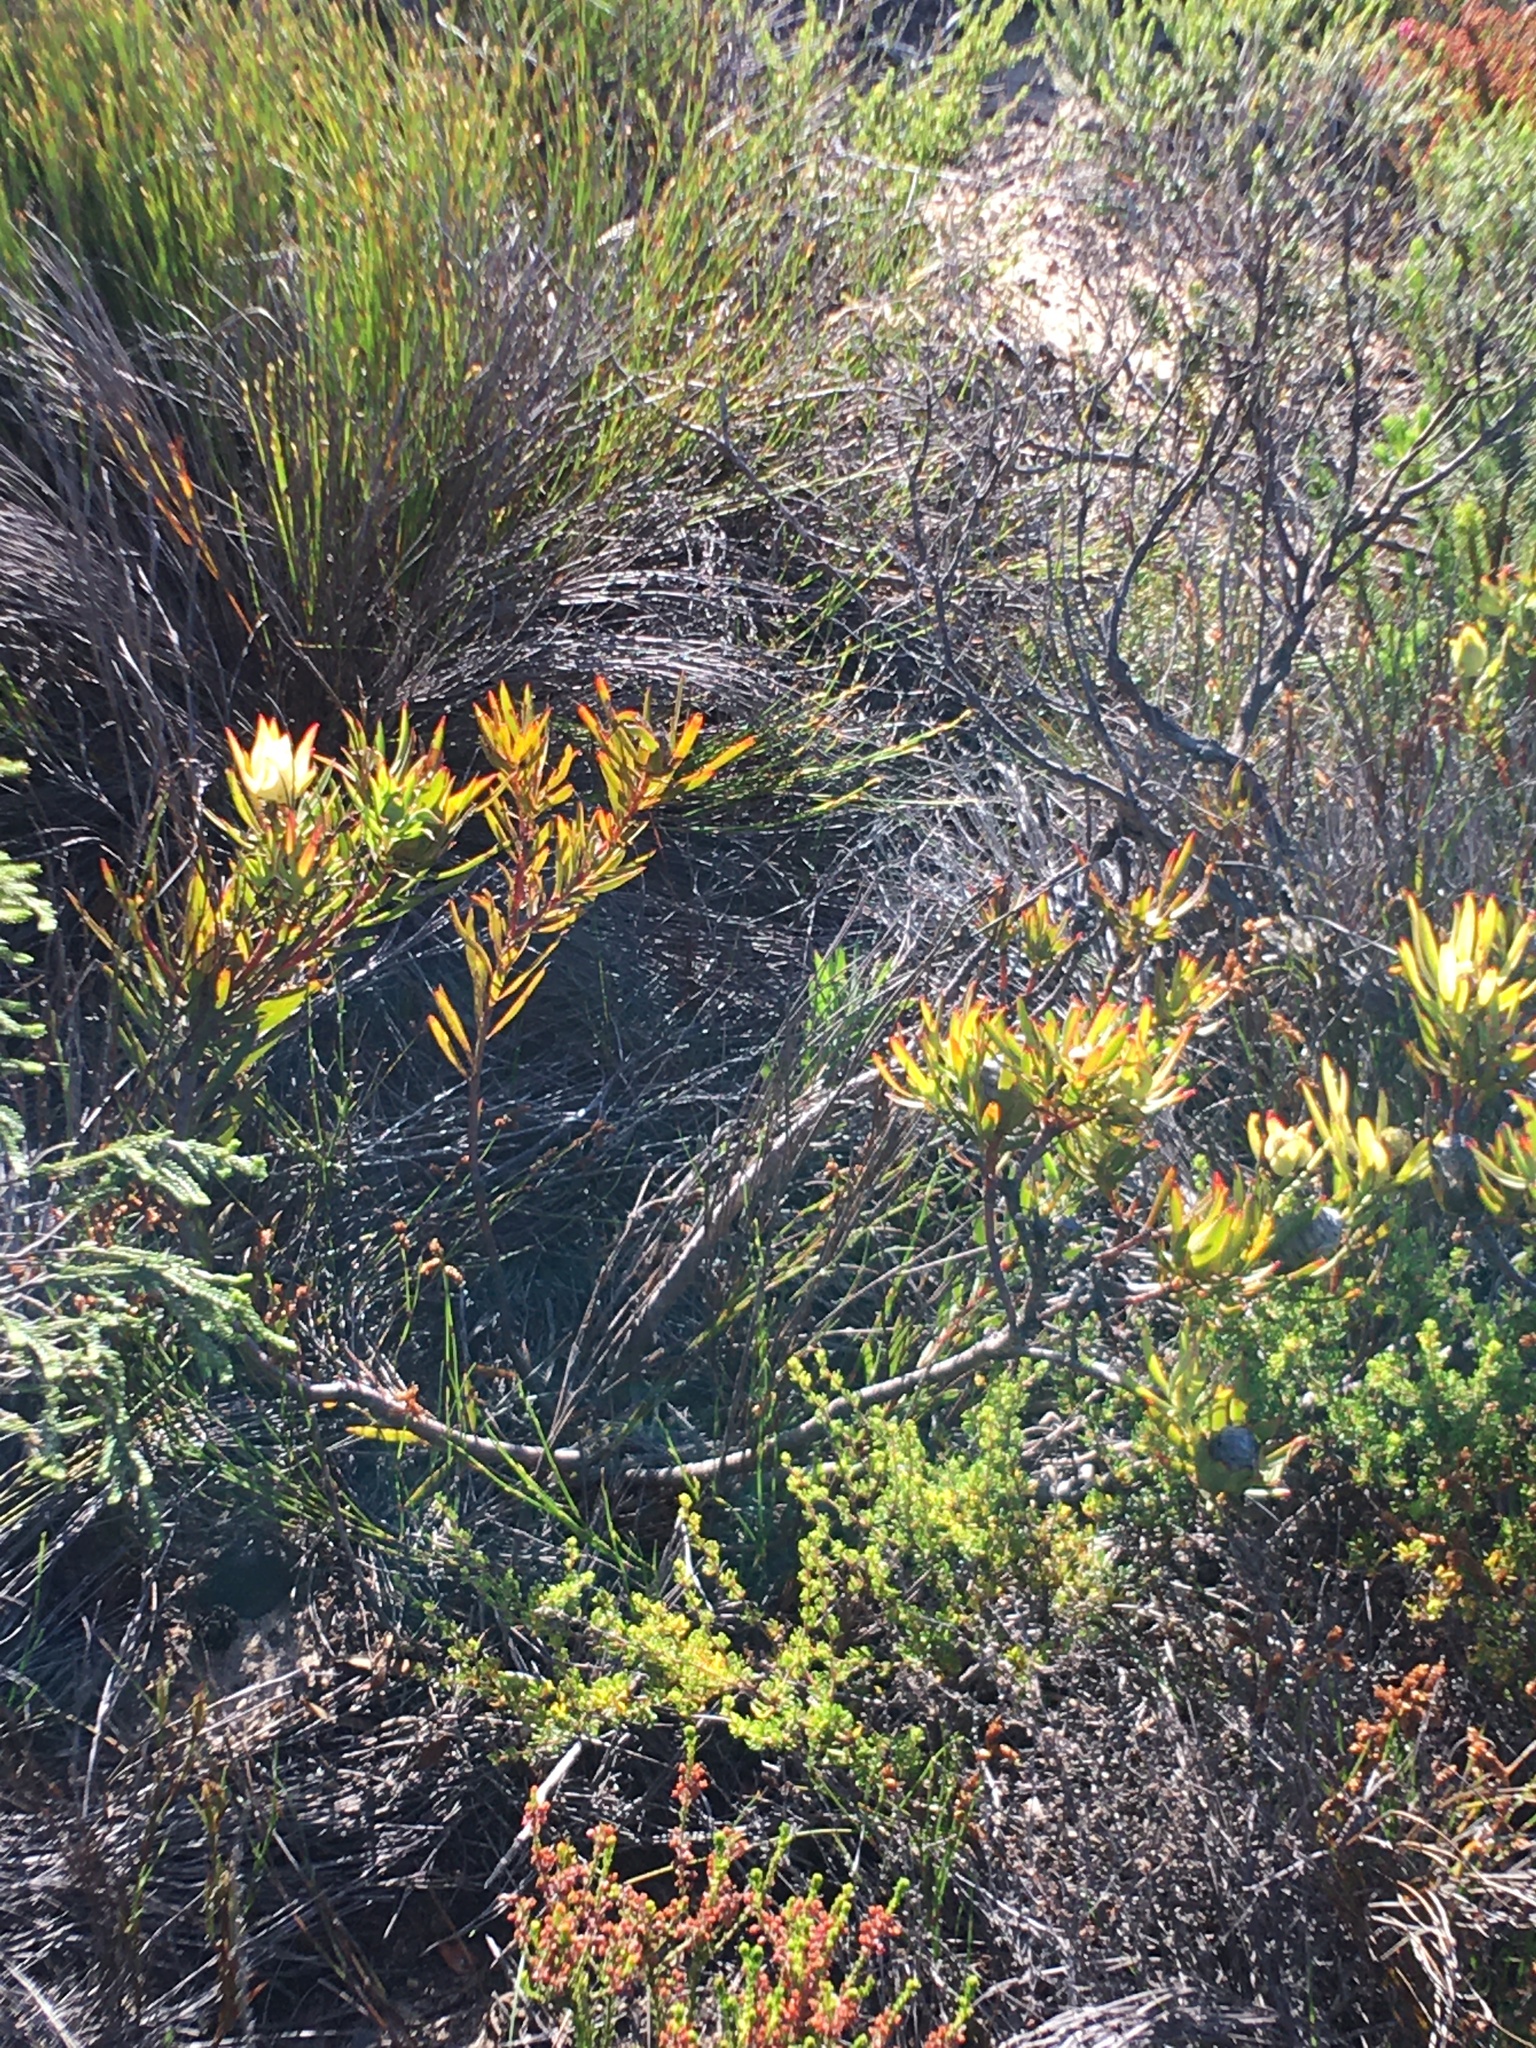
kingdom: Plantae
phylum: Tracheophyta
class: Magnoliopsida
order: Proteales
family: Proteaceae
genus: Leucadendron
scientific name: Leucadendron salignum
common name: Common sunshine conebush
